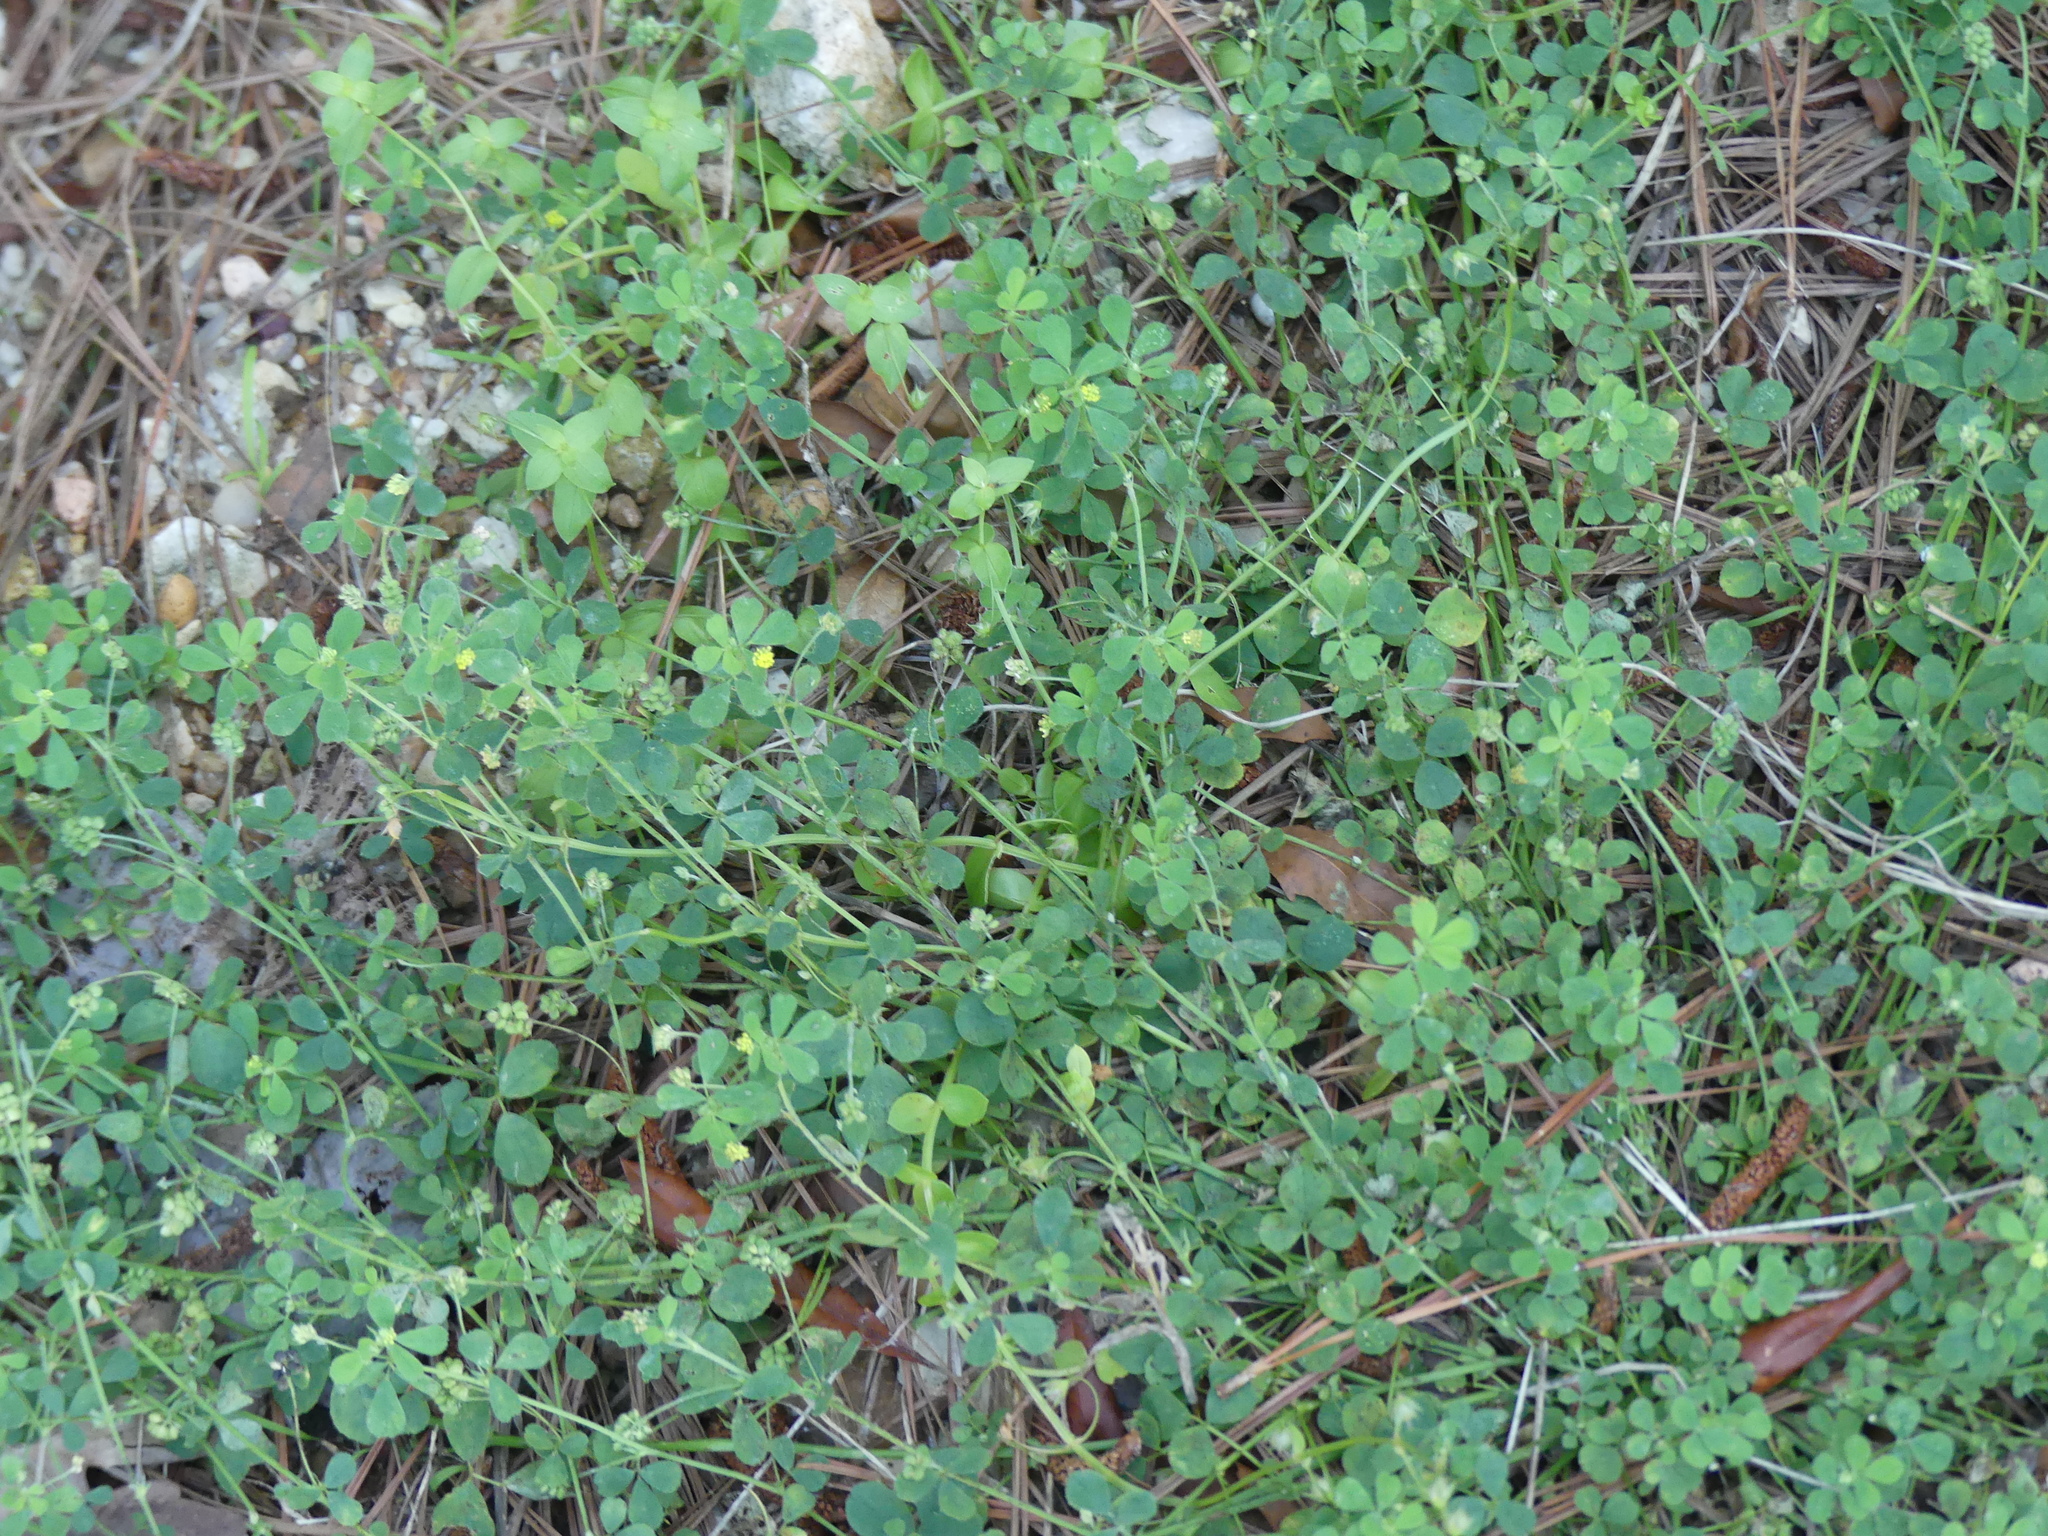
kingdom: Plantae
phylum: Tracheophyta
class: Magnoliopsida
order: Fabales
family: Fabaceae
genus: Medicago
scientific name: Medicago lupulina
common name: Black medick
